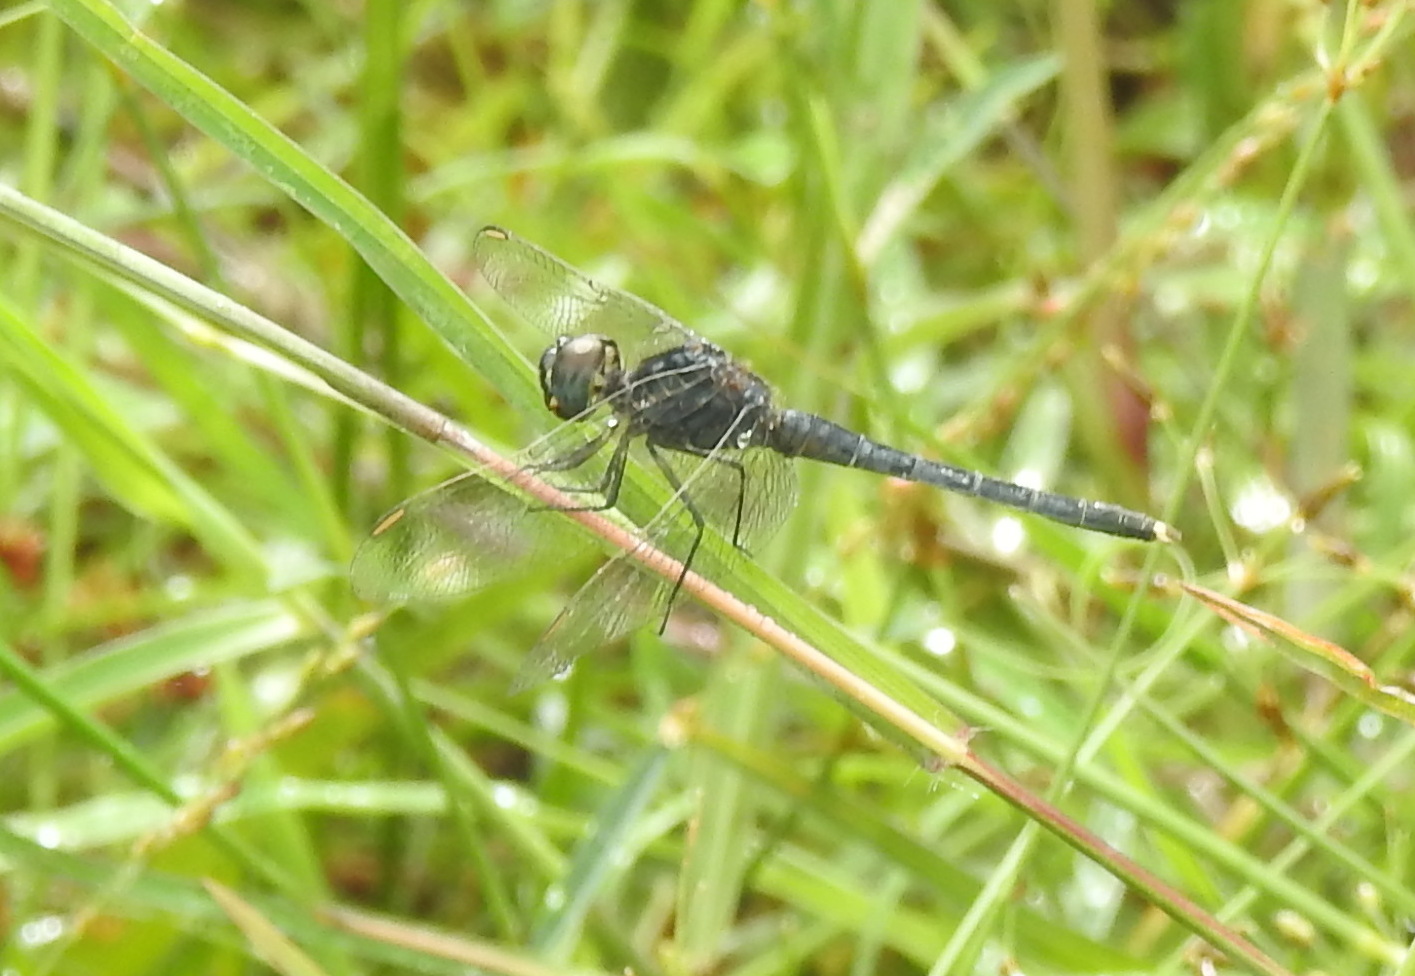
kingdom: Animalia
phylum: Arthropoda
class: Insecta
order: Odonata
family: Libellulidae
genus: Indothemis
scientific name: Indothemis carnatica
